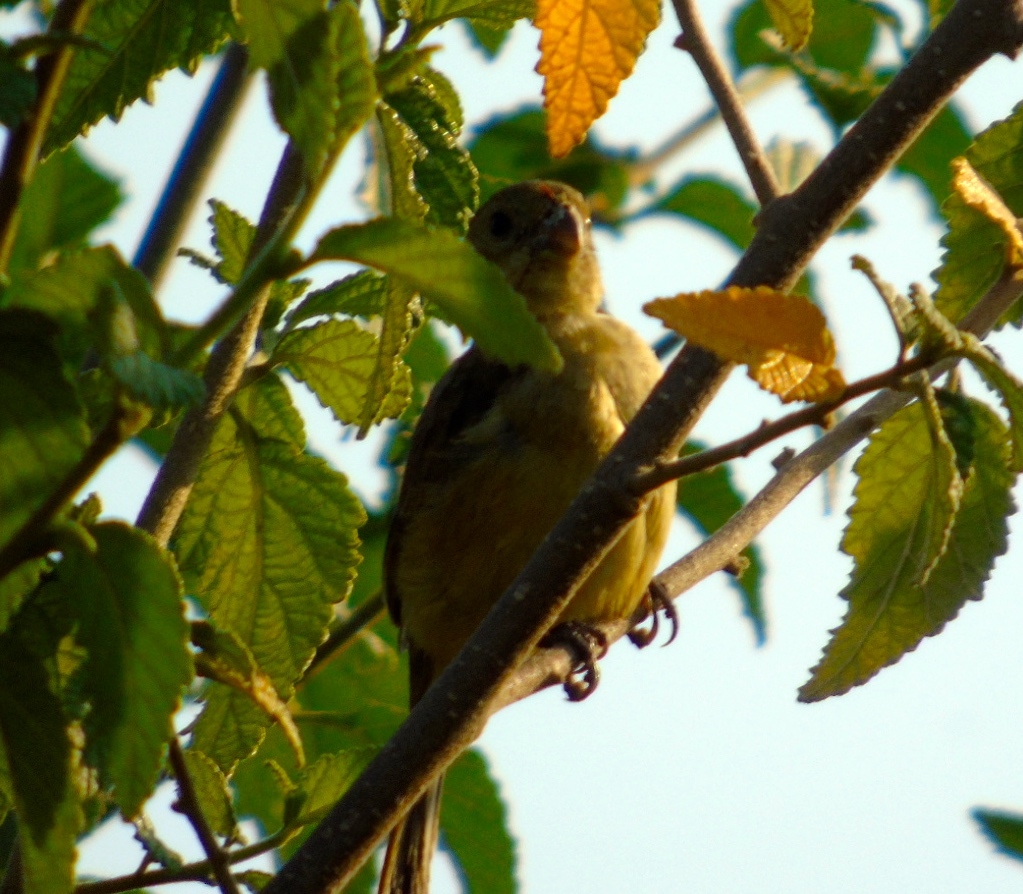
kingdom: Animalia
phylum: Chordata
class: Aves
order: Passeriformes
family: Thraupidae
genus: Sporophila
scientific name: Sporophila torqueola
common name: White-collared seedeater
